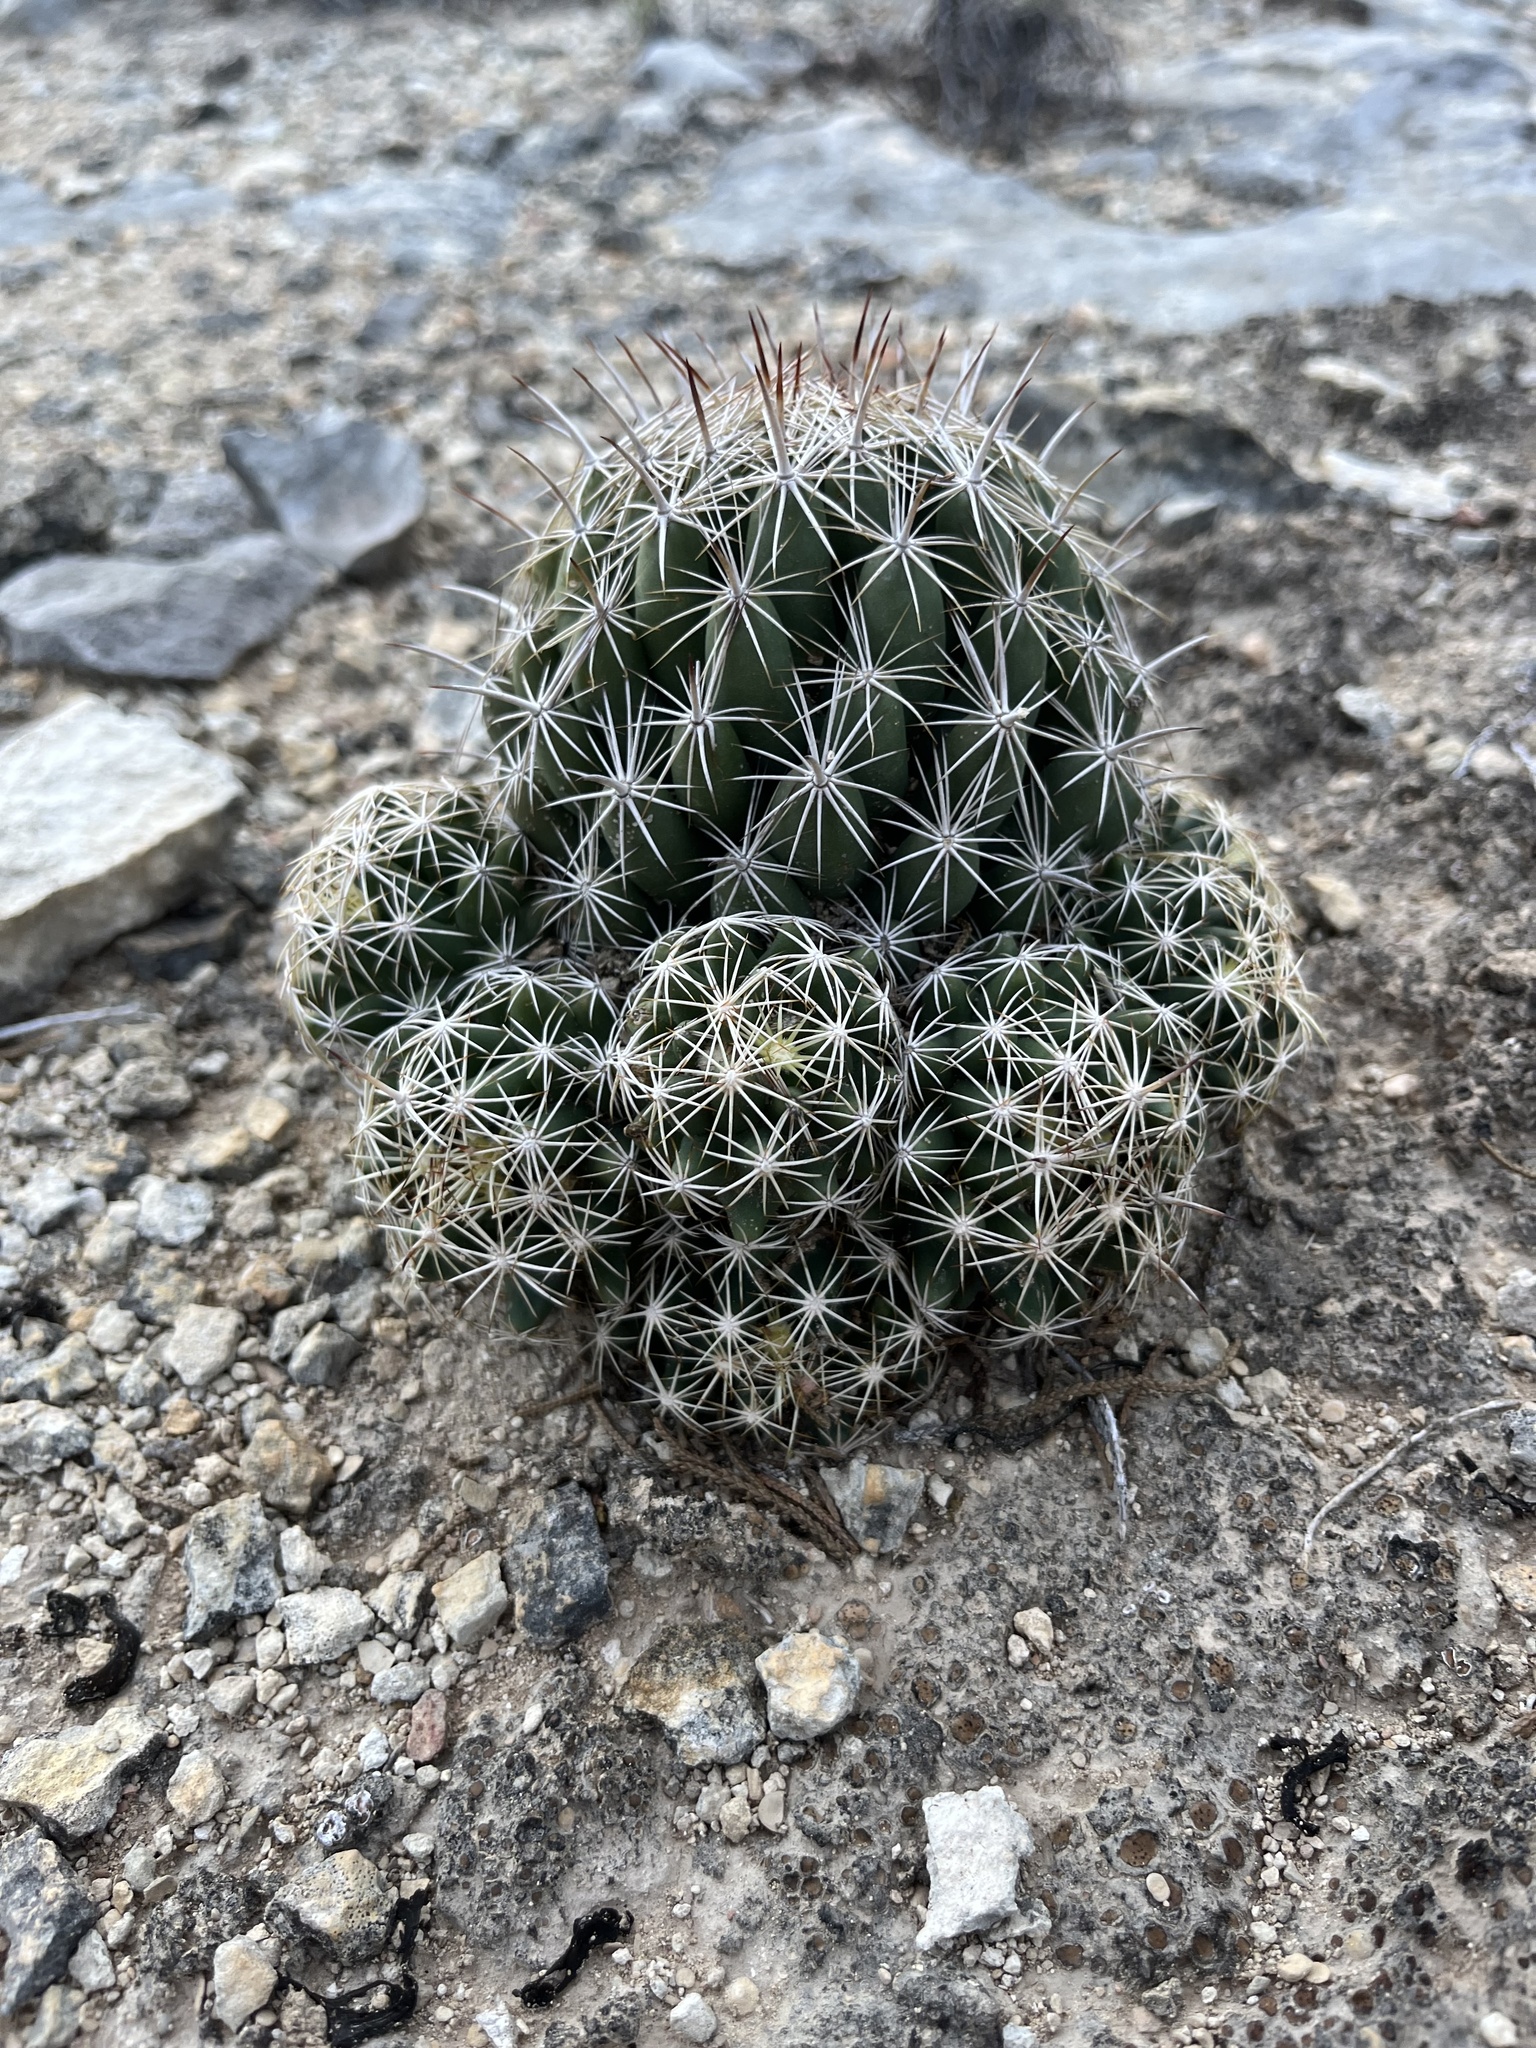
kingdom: Plantae
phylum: Tracheophyta
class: Magnoliopsida
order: Caryophyllales
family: Cactaceae
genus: Coryphantha
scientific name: Coryphantha sulcata
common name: Finger cactus
